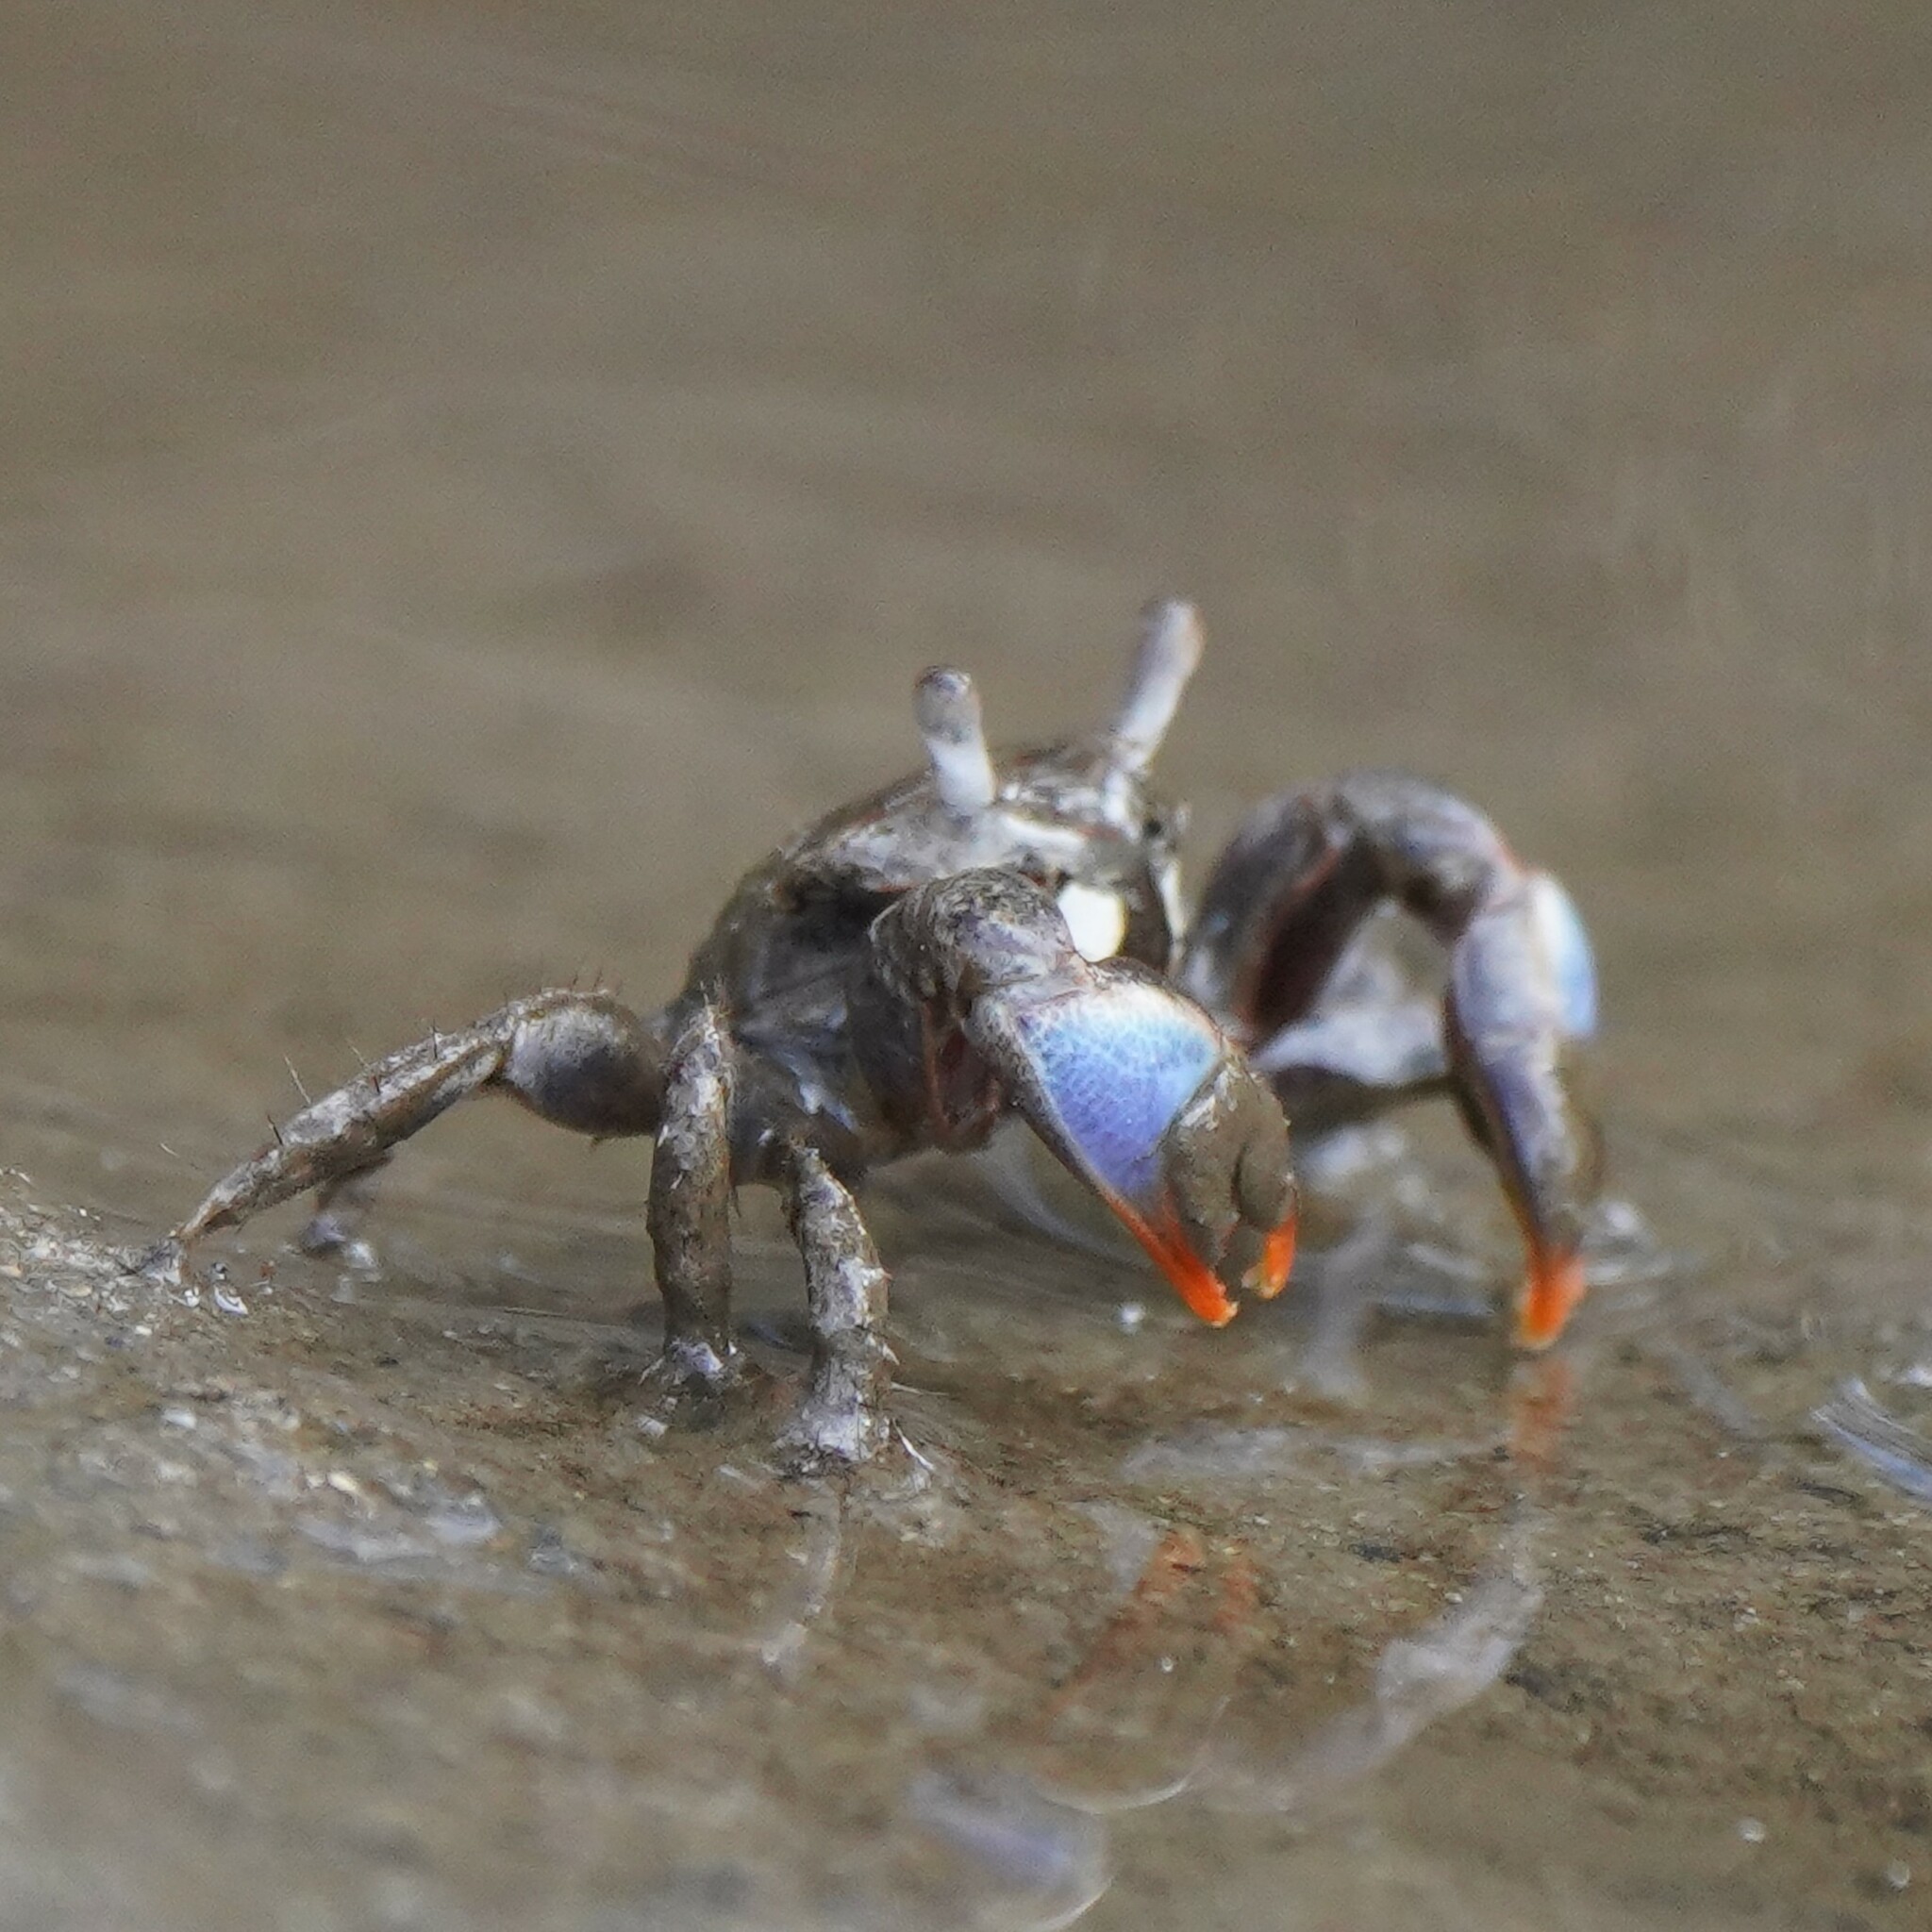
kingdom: Animalia
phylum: Arthropoda
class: Malacostraca
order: Decapoda
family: Macrophthalmidae
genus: Australoplax
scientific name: Australoplax tridentata
